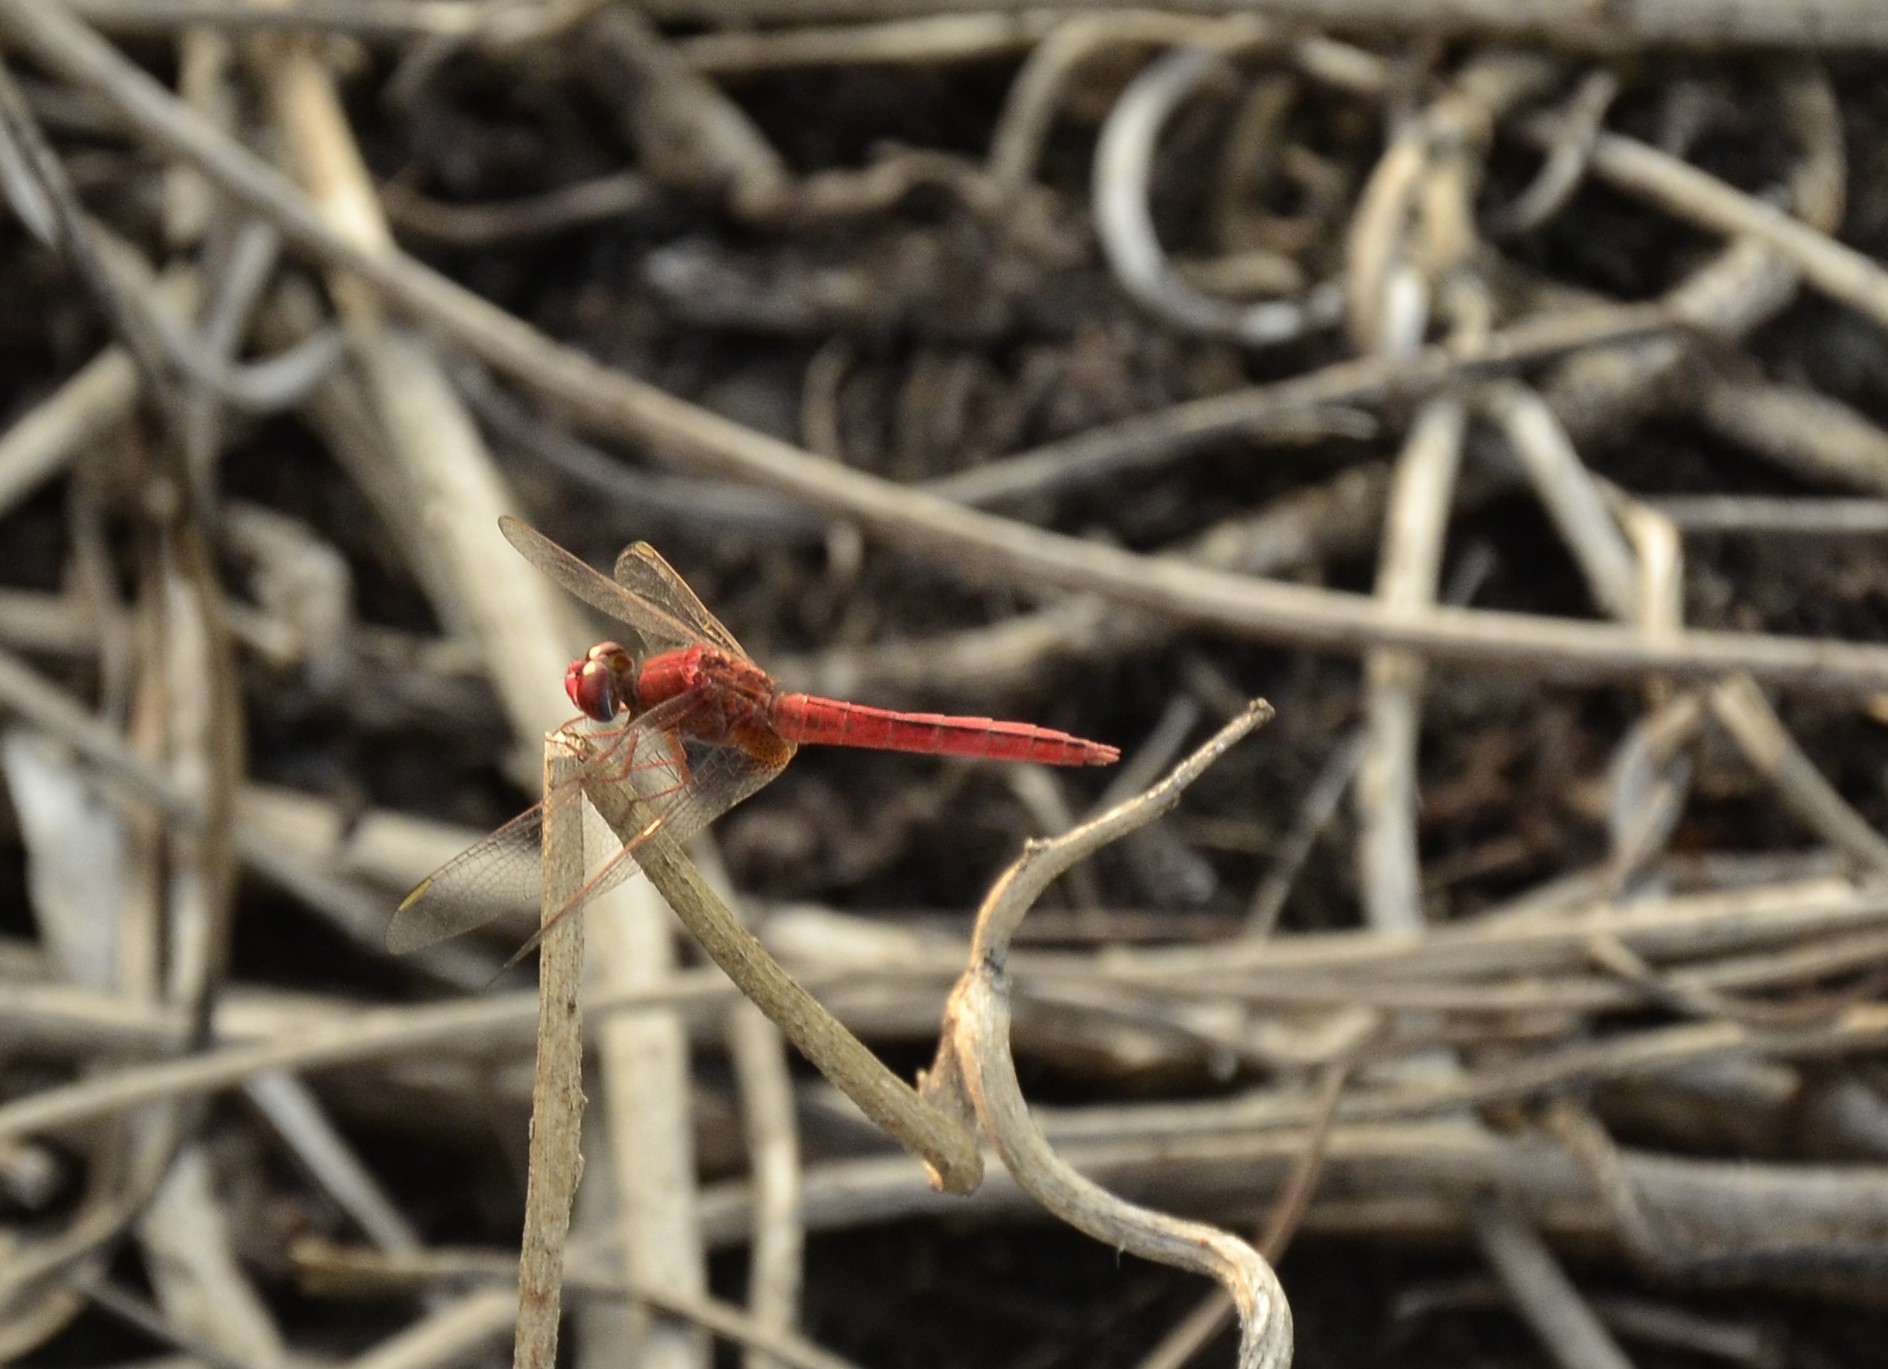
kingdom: Animalia
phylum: Arthropoda
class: Insecta
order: Odonata
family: Libellulidae
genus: Crocothemis
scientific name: Crocothemis servilia
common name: Scarlet skimmer
